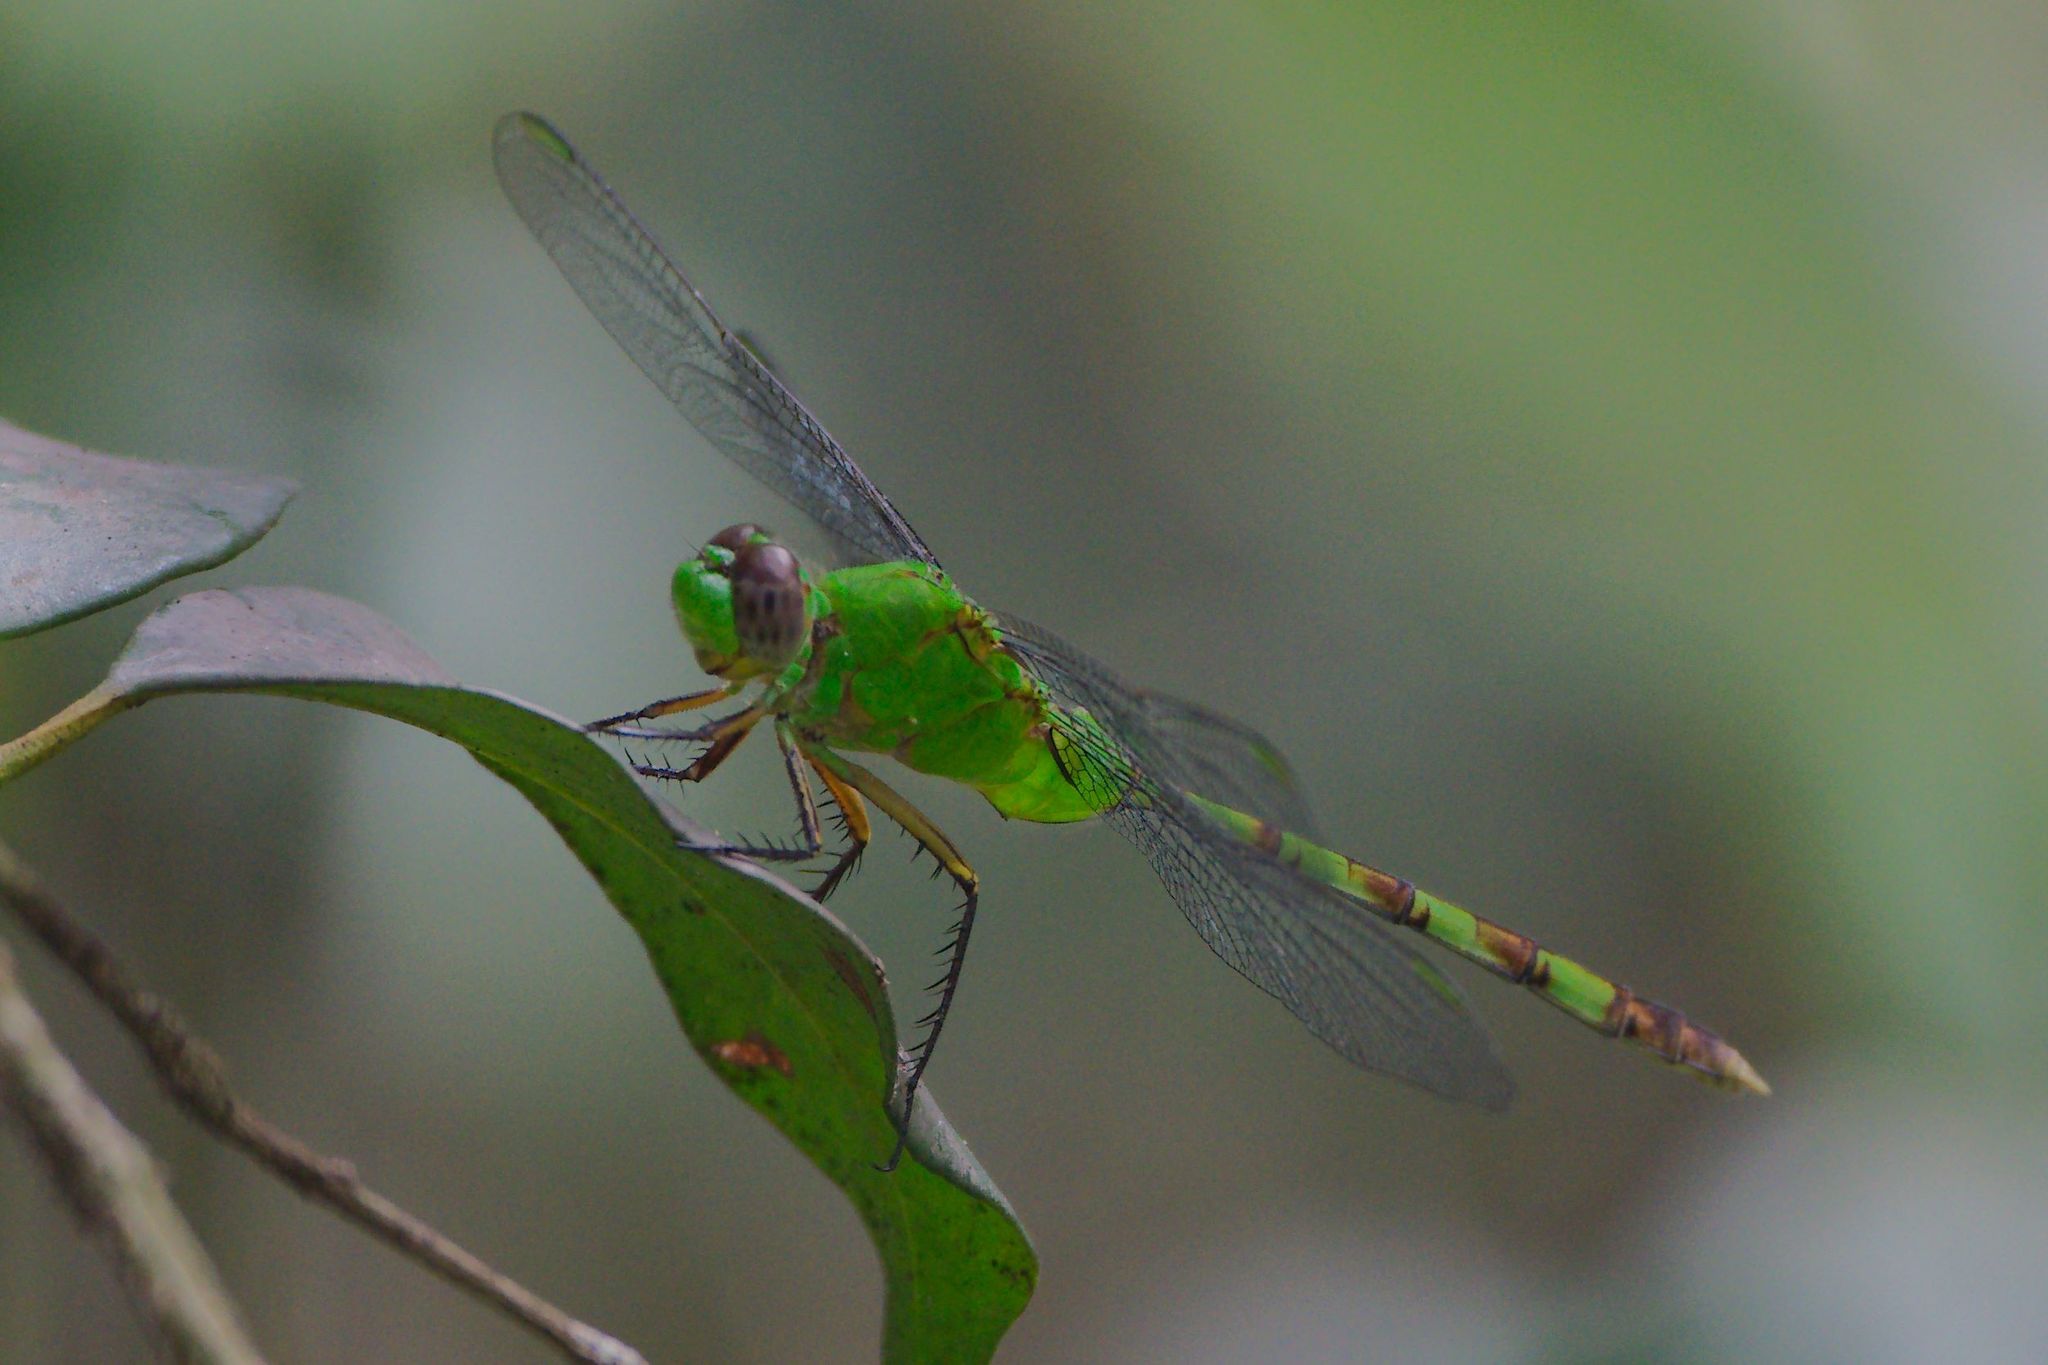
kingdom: Animalia
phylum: Arthropoda
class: Insecta
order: Odonata
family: Libellulidae
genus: Erythemis
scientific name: Erythemis vesiculosa
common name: Great pondhawk
